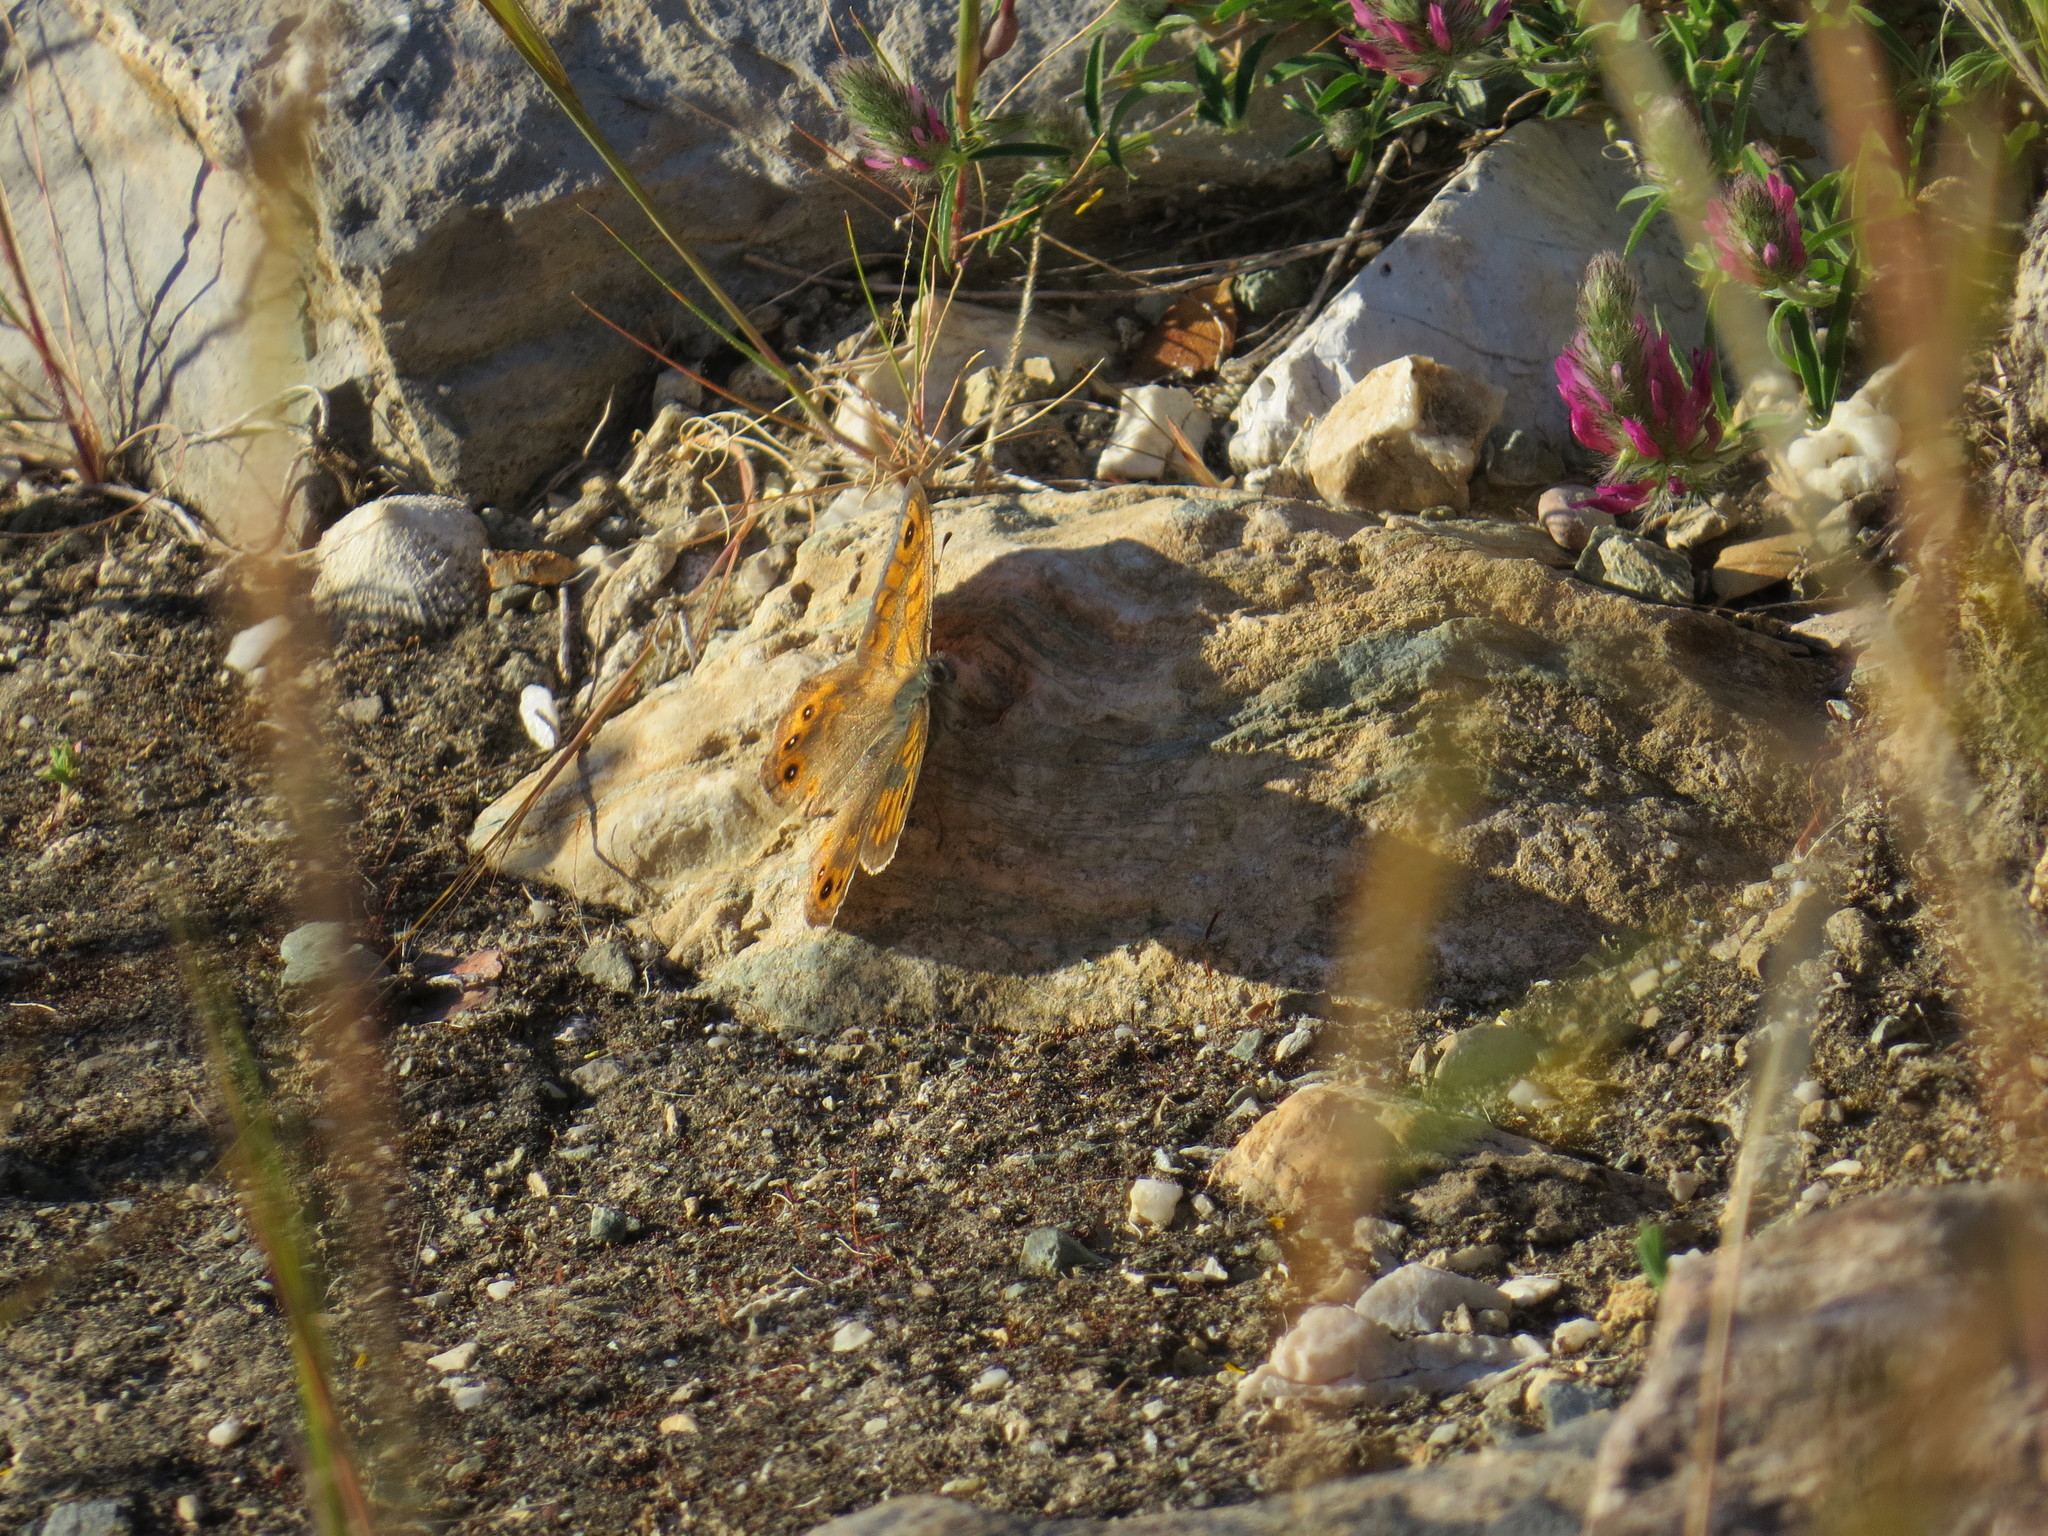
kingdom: Animalia
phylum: Arthropoda
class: Insecta
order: Lepidoptera
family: Nymphalidae
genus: Pararge
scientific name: Pararge Lasiommata megera
